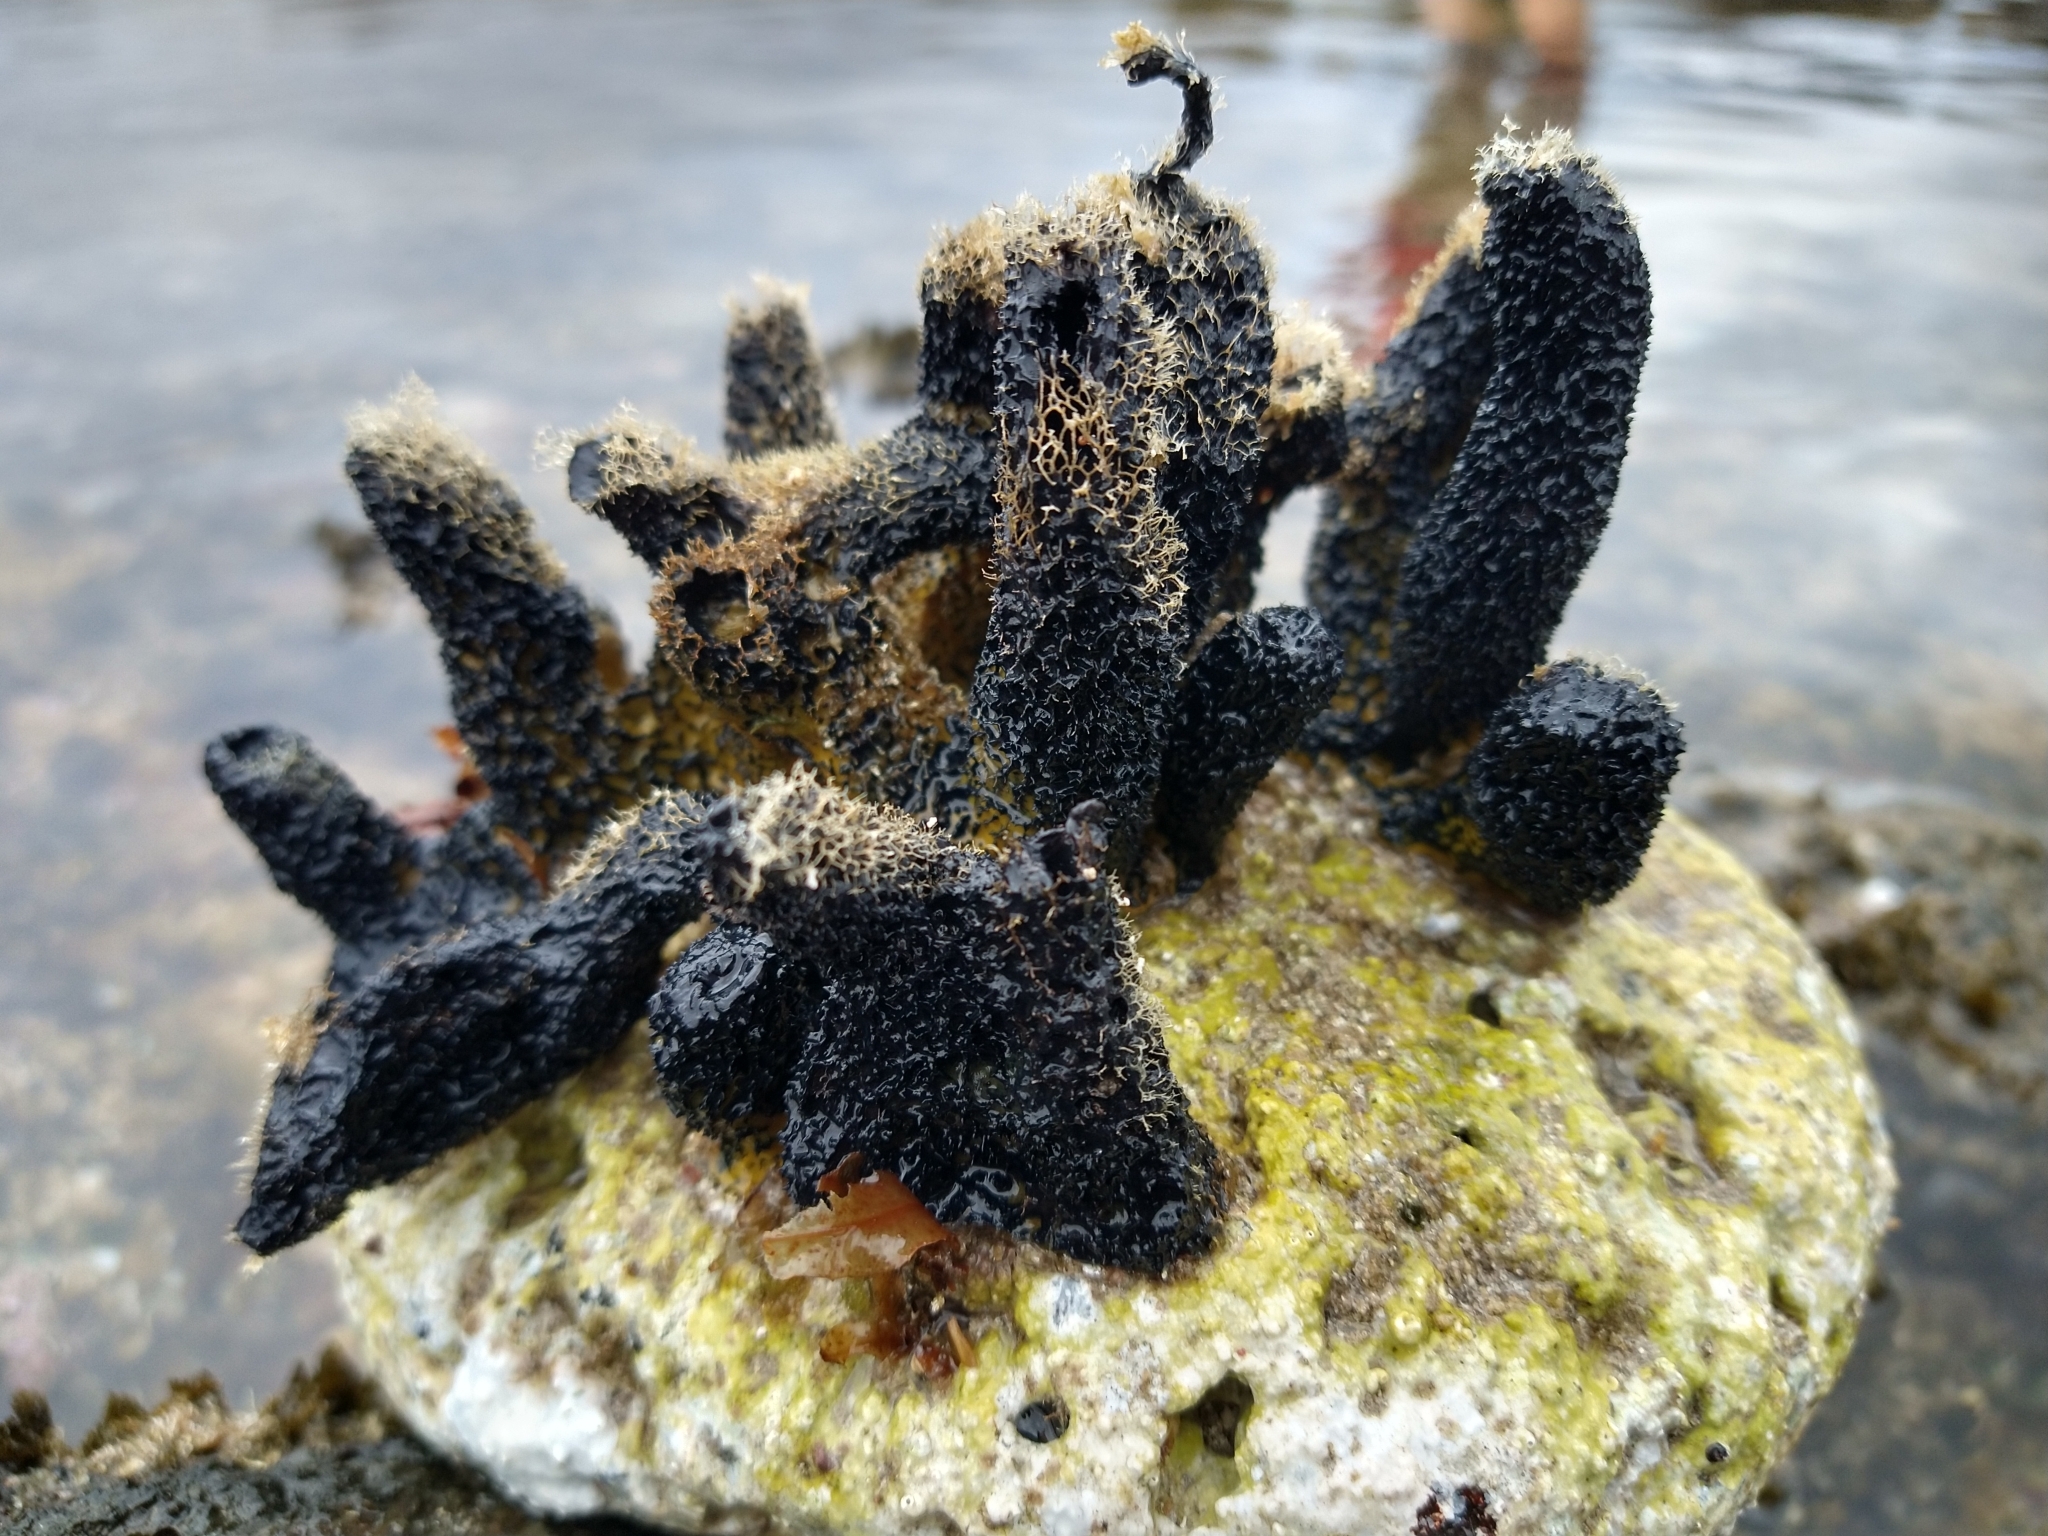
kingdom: Animalia
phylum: Porifera
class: Demospongiae
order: Verongiida
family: Aplysinidae
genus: Aplysina
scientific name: Aplysina aerophoba
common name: Aureate sponge
